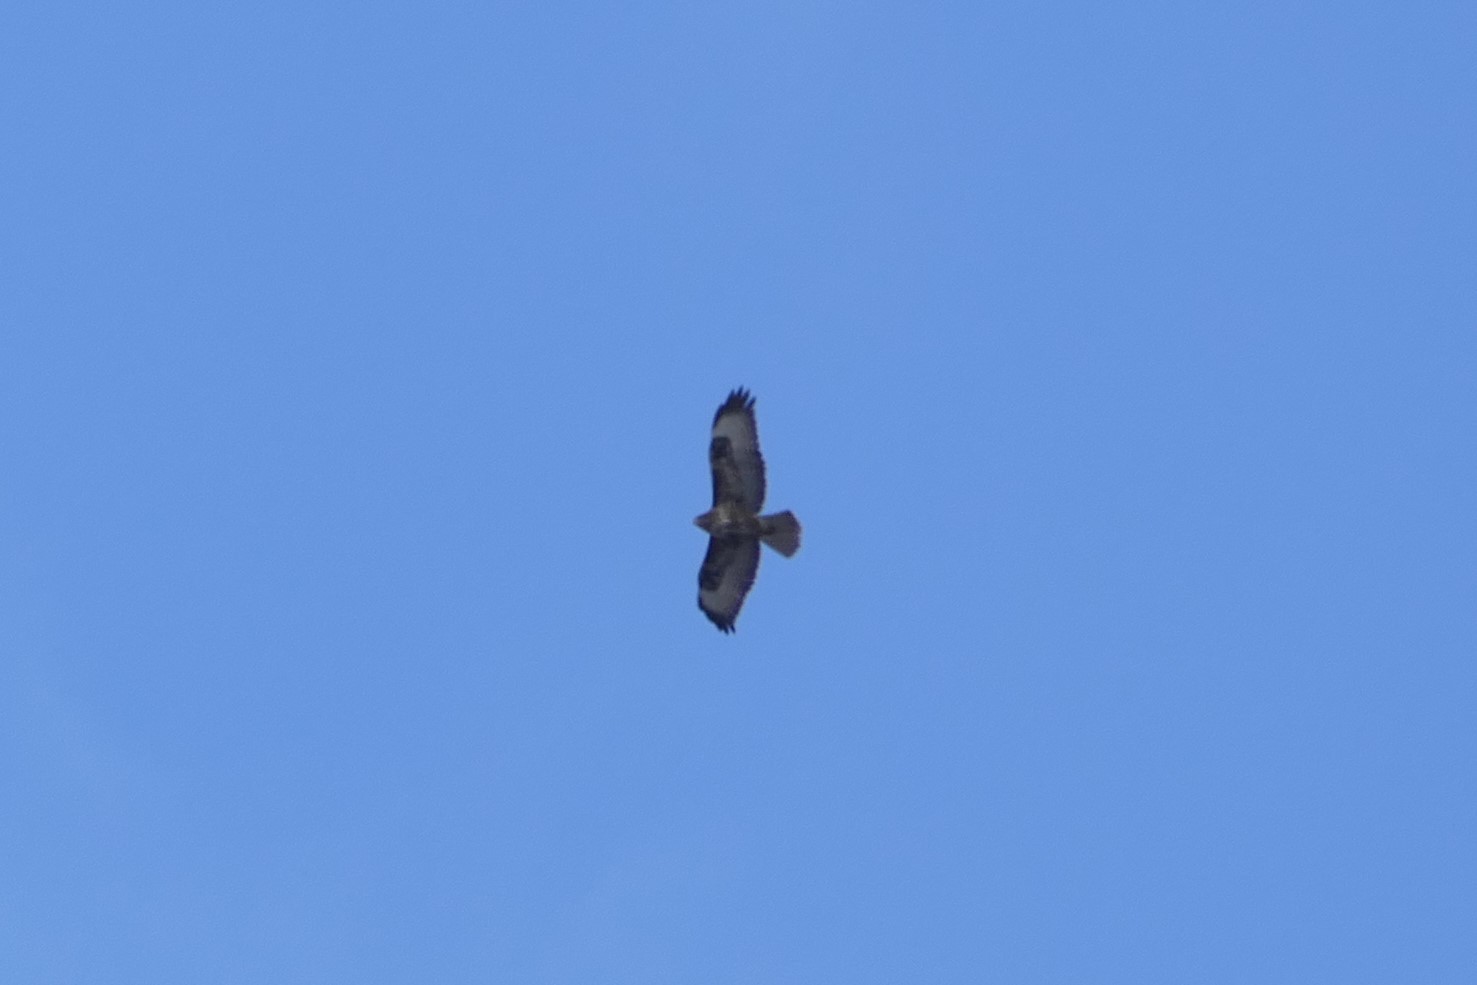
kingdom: Animalia
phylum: Chordata
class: Aves
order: Accipitriformes
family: Accipitridae
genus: Buteo
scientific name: Buteo buteo
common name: Common buzzard
